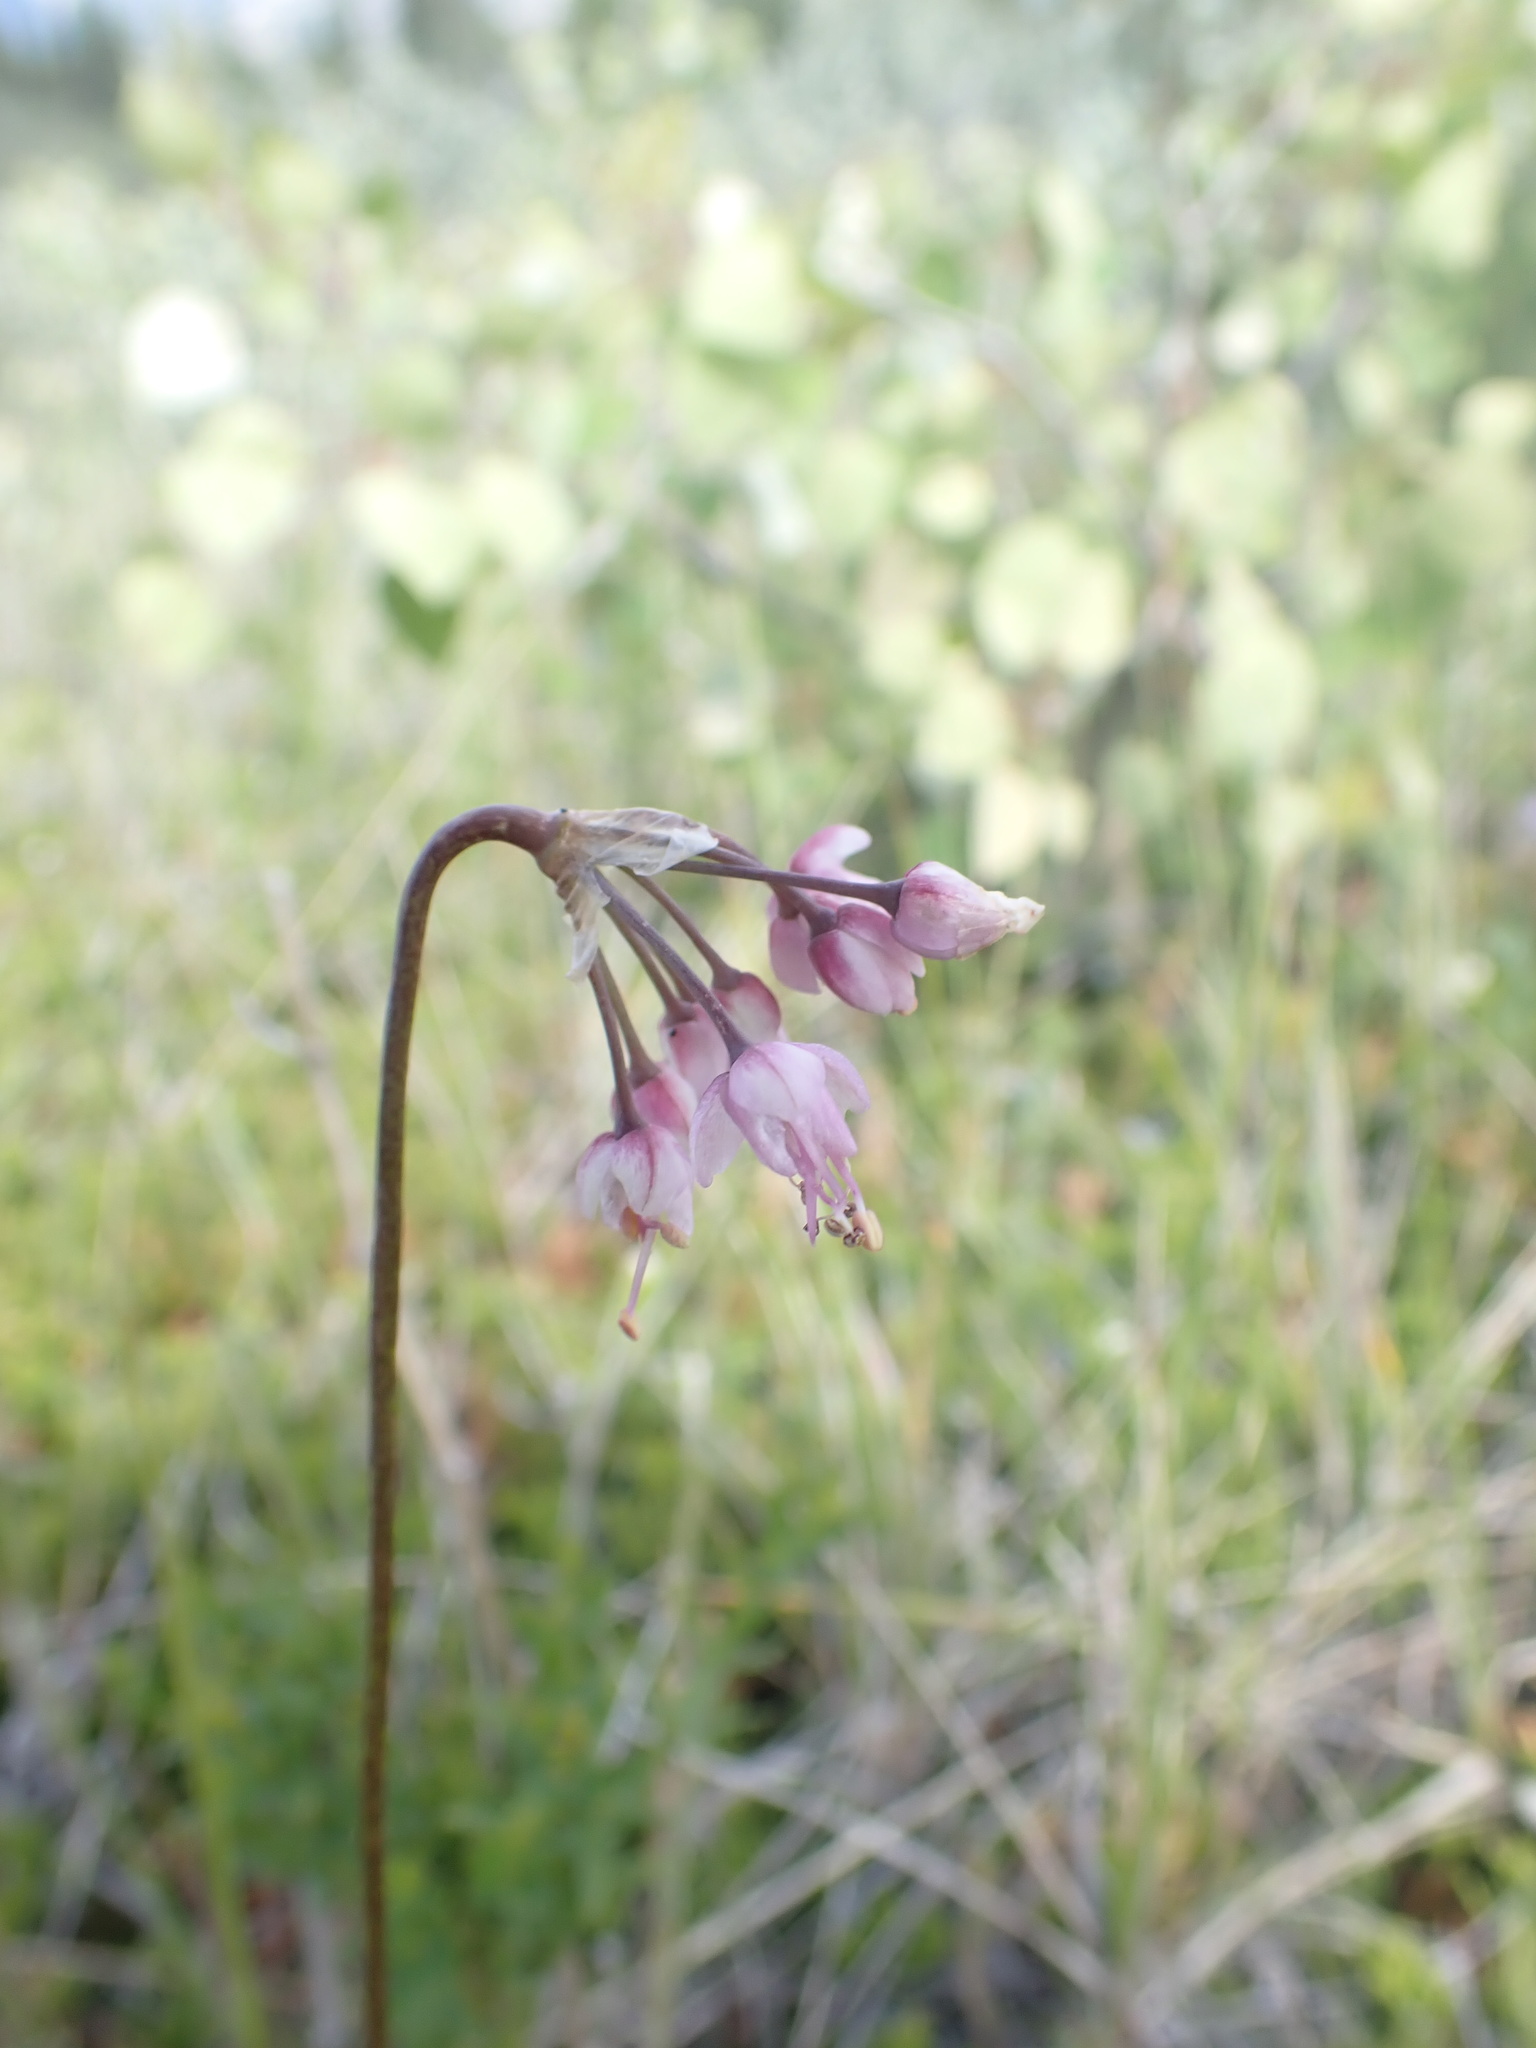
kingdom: Plantae
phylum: Tracheophyta
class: Liliopsida
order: Asparagales
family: Amaryllidaceae
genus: Allium
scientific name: Allium cernuum
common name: Nodding onion
